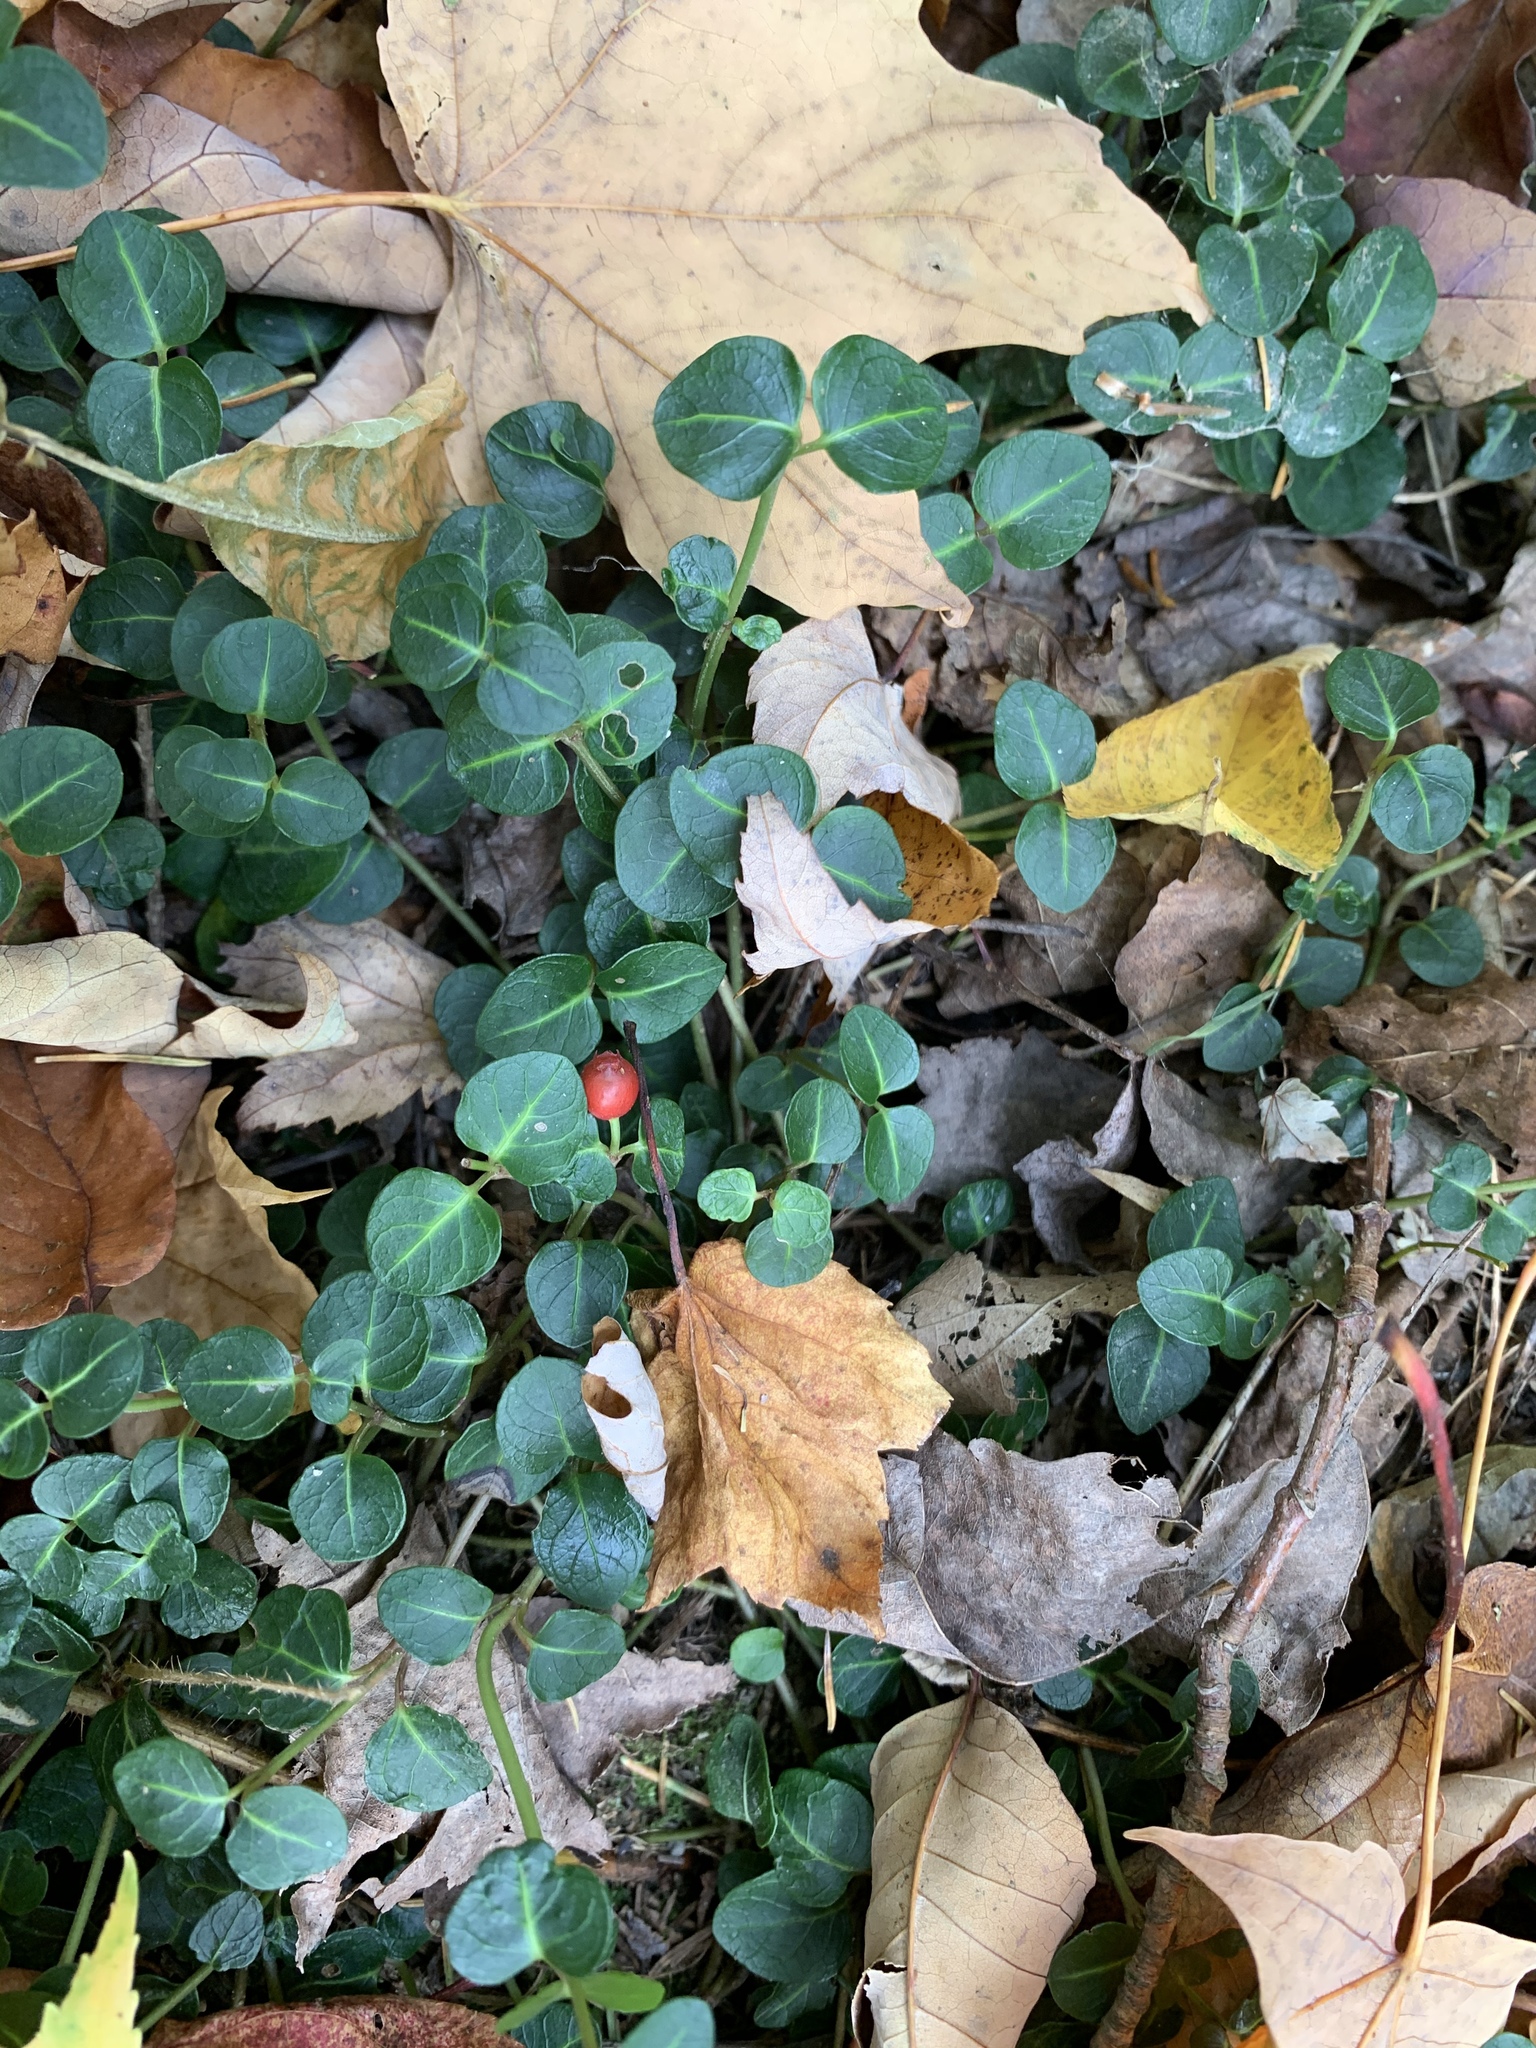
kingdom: Plantae
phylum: Tracheophyta
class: Magnoliopsida
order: Gentianales
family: Rubiaceae
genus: Mitchella
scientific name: Mitchella repens
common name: Partridge-berry
